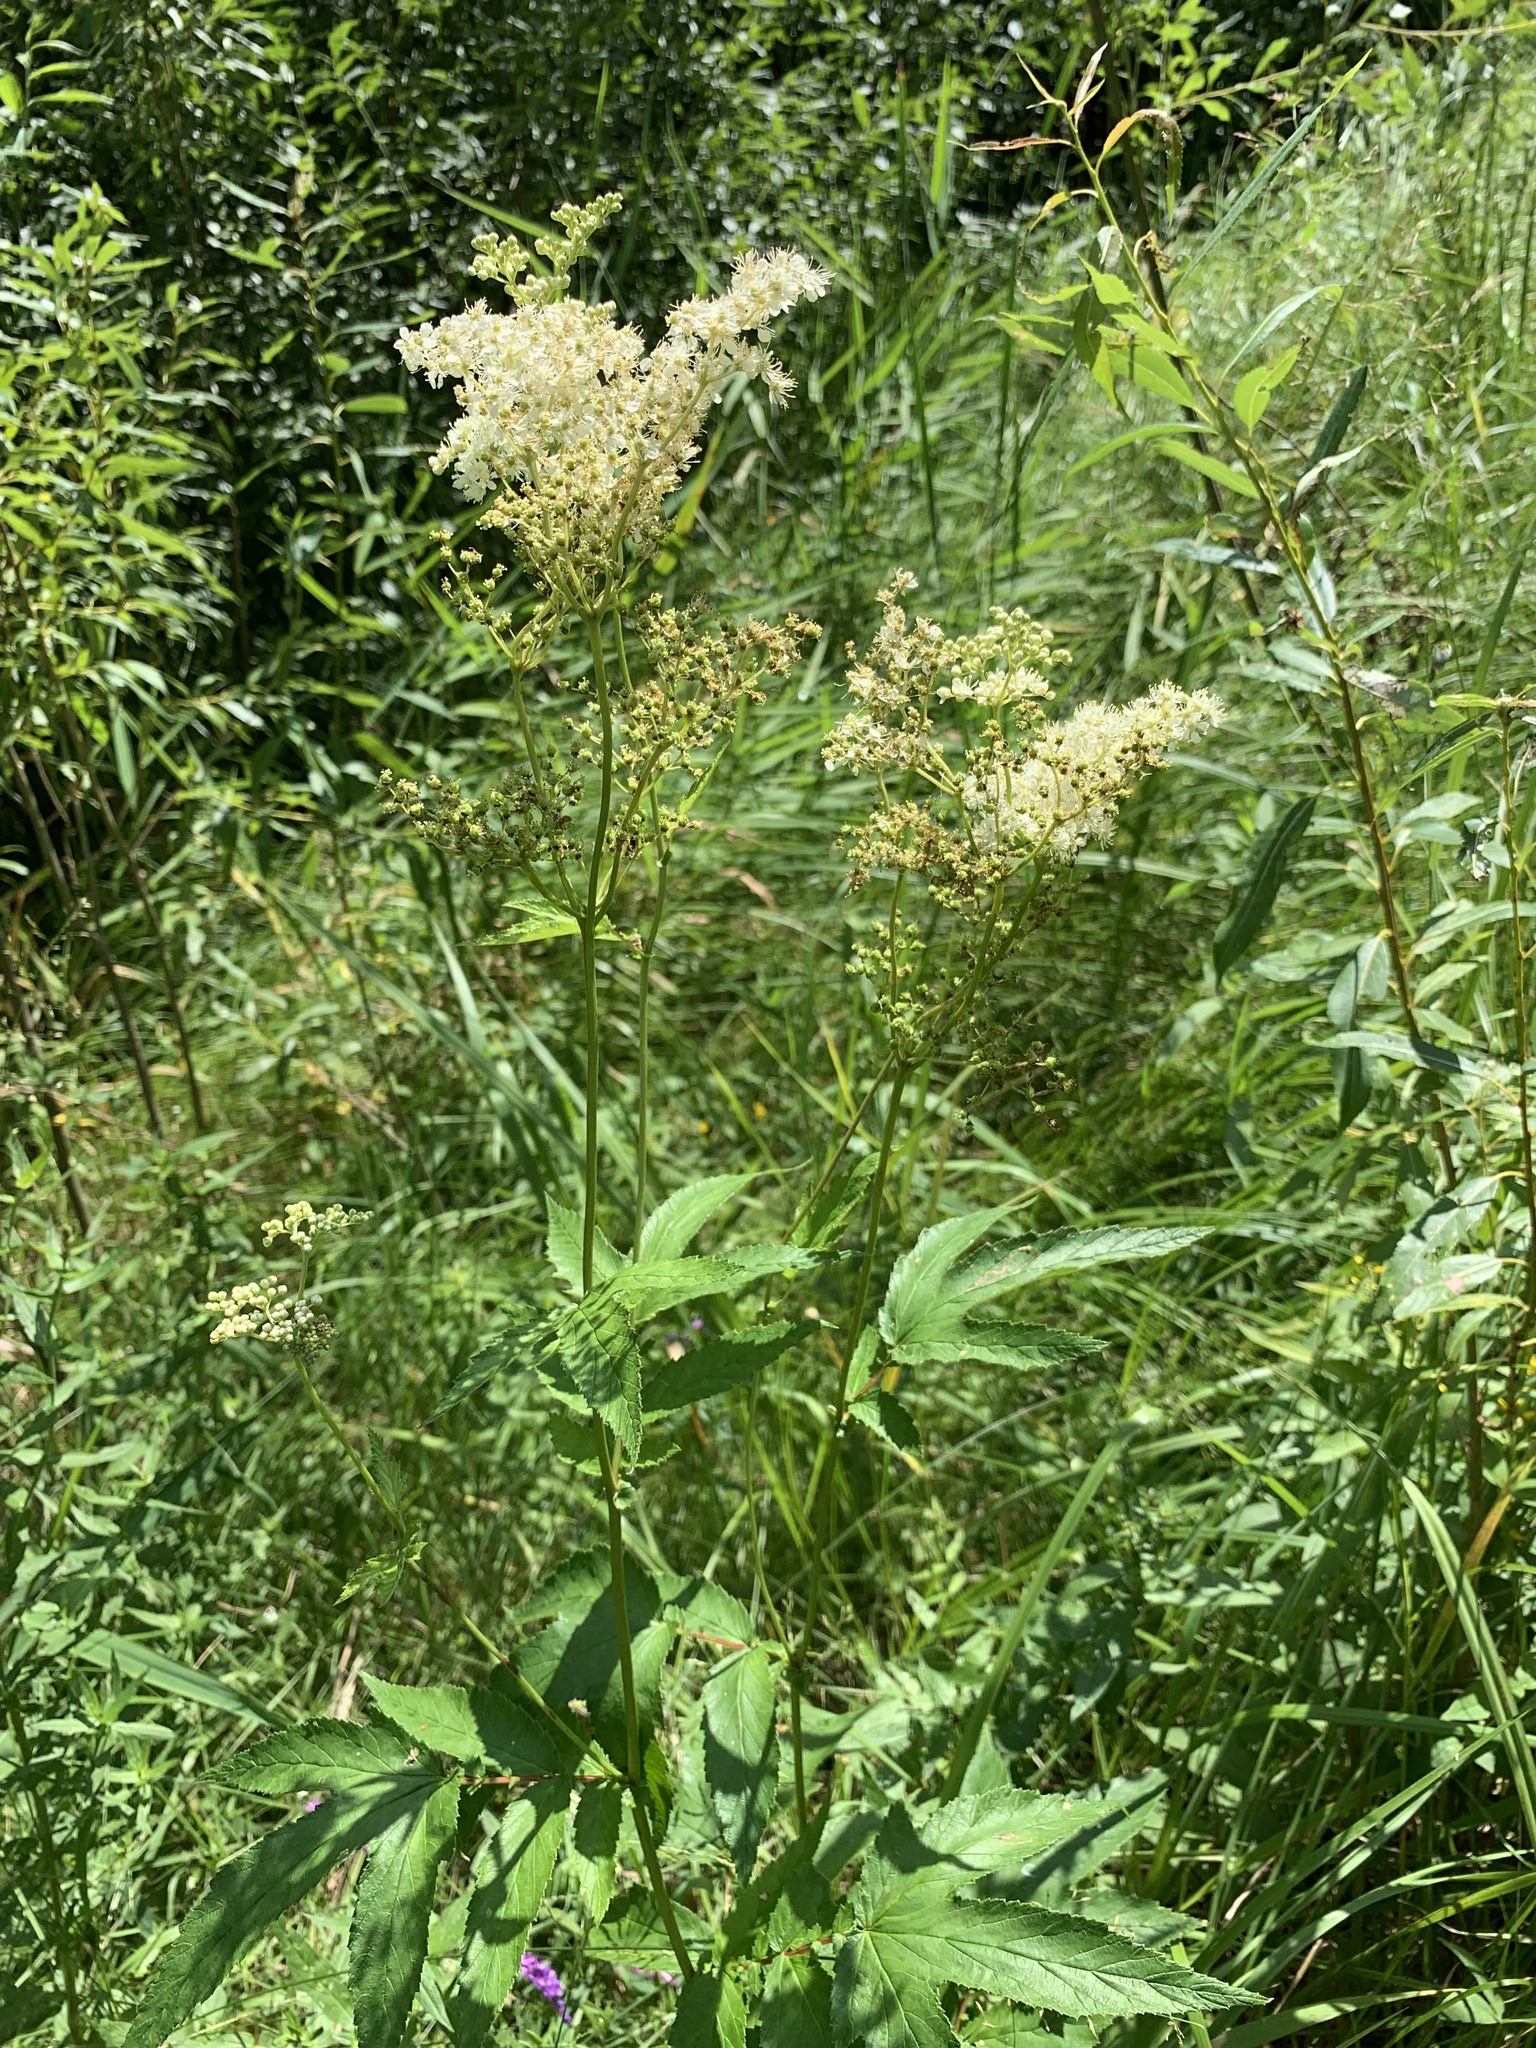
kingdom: Plantae
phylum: Tracheophyta
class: Magnoliopsida
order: Rosales
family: Rosaceae
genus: Filipendula
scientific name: Filipendula ulmaria
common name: Meadowsweet
